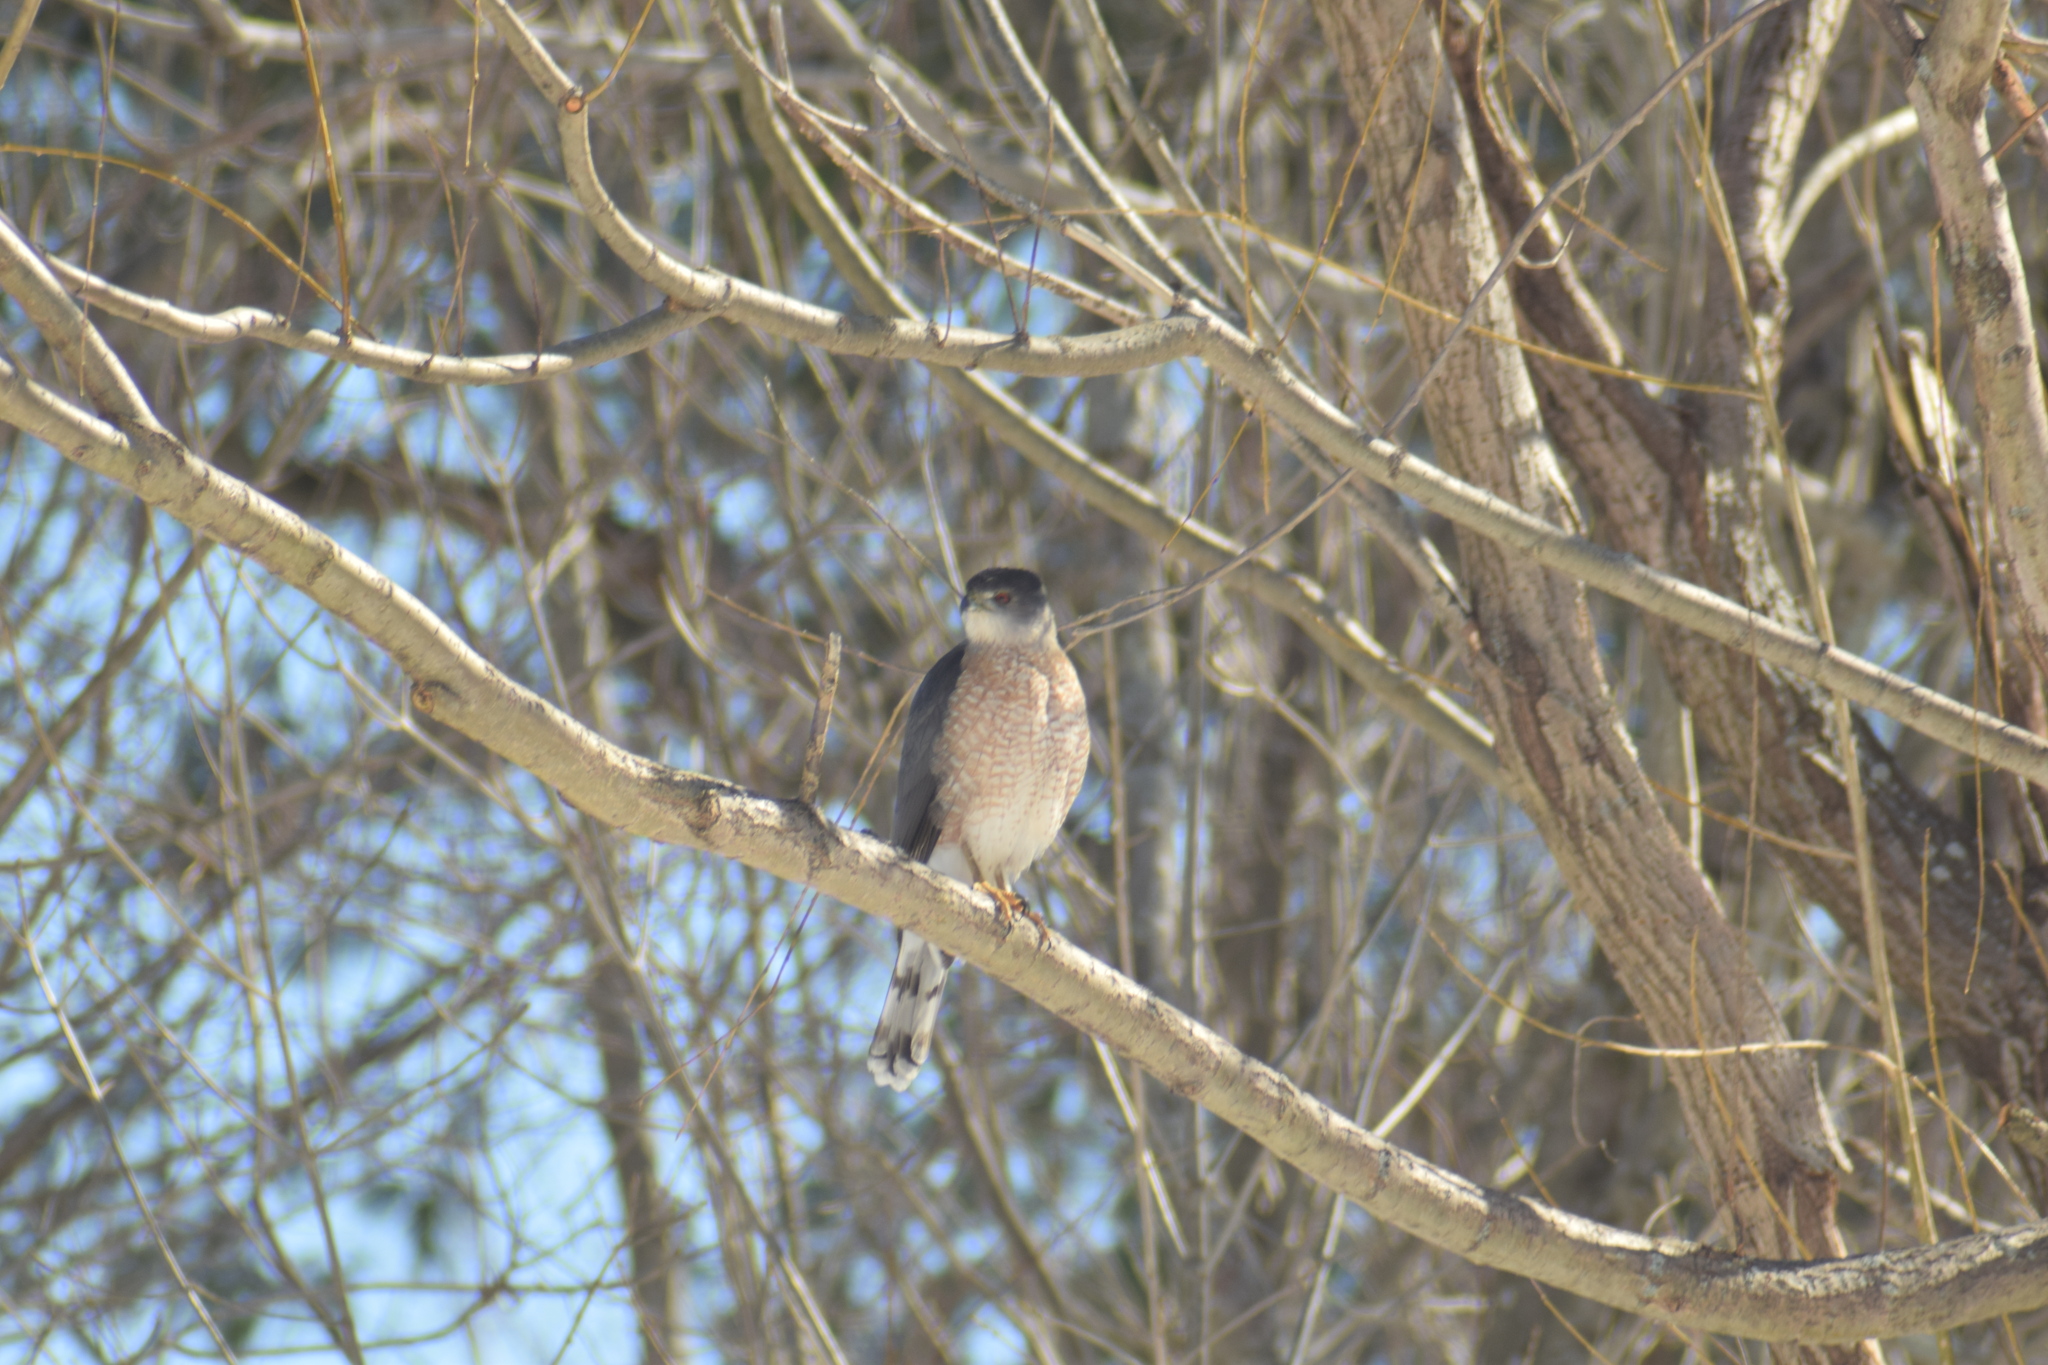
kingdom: Animalia
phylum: Chordata
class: Aves
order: Accipitriformes
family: Accipitridae
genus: Accipiter
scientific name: Accipiter cooperii
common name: Cooper's hawk
